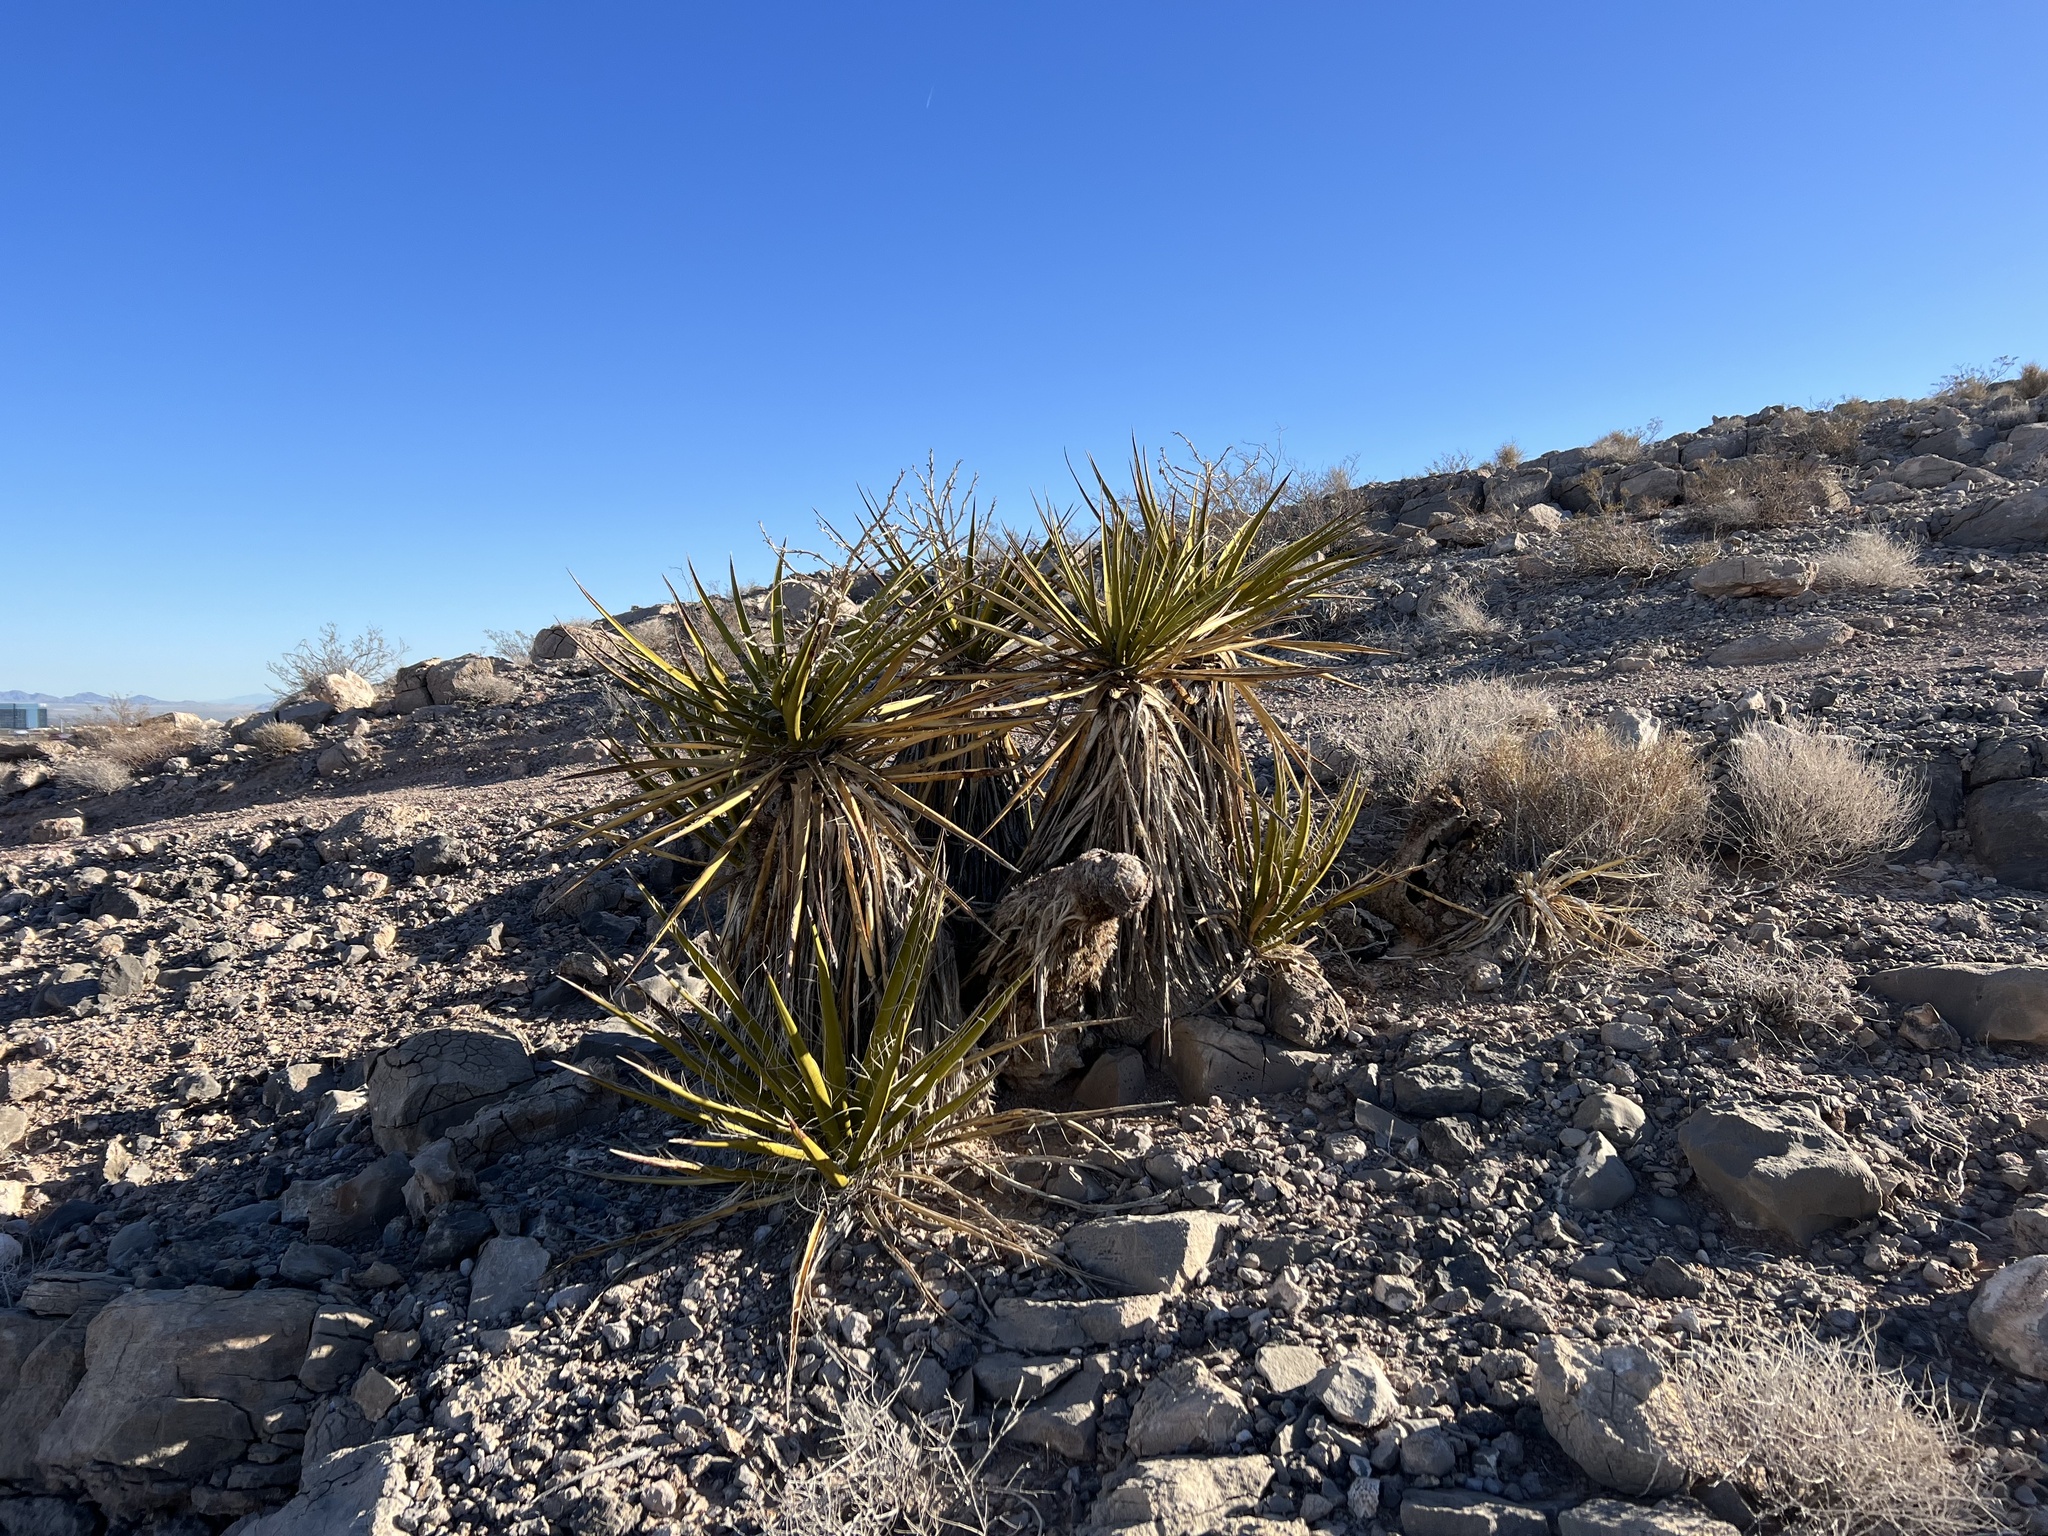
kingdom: Plantae
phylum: Tracheophyta
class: Liliopsida
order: Asparagales
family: Asparagaceae
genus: Yucca
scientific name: Yucca schidigera
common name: Mojave yucca
